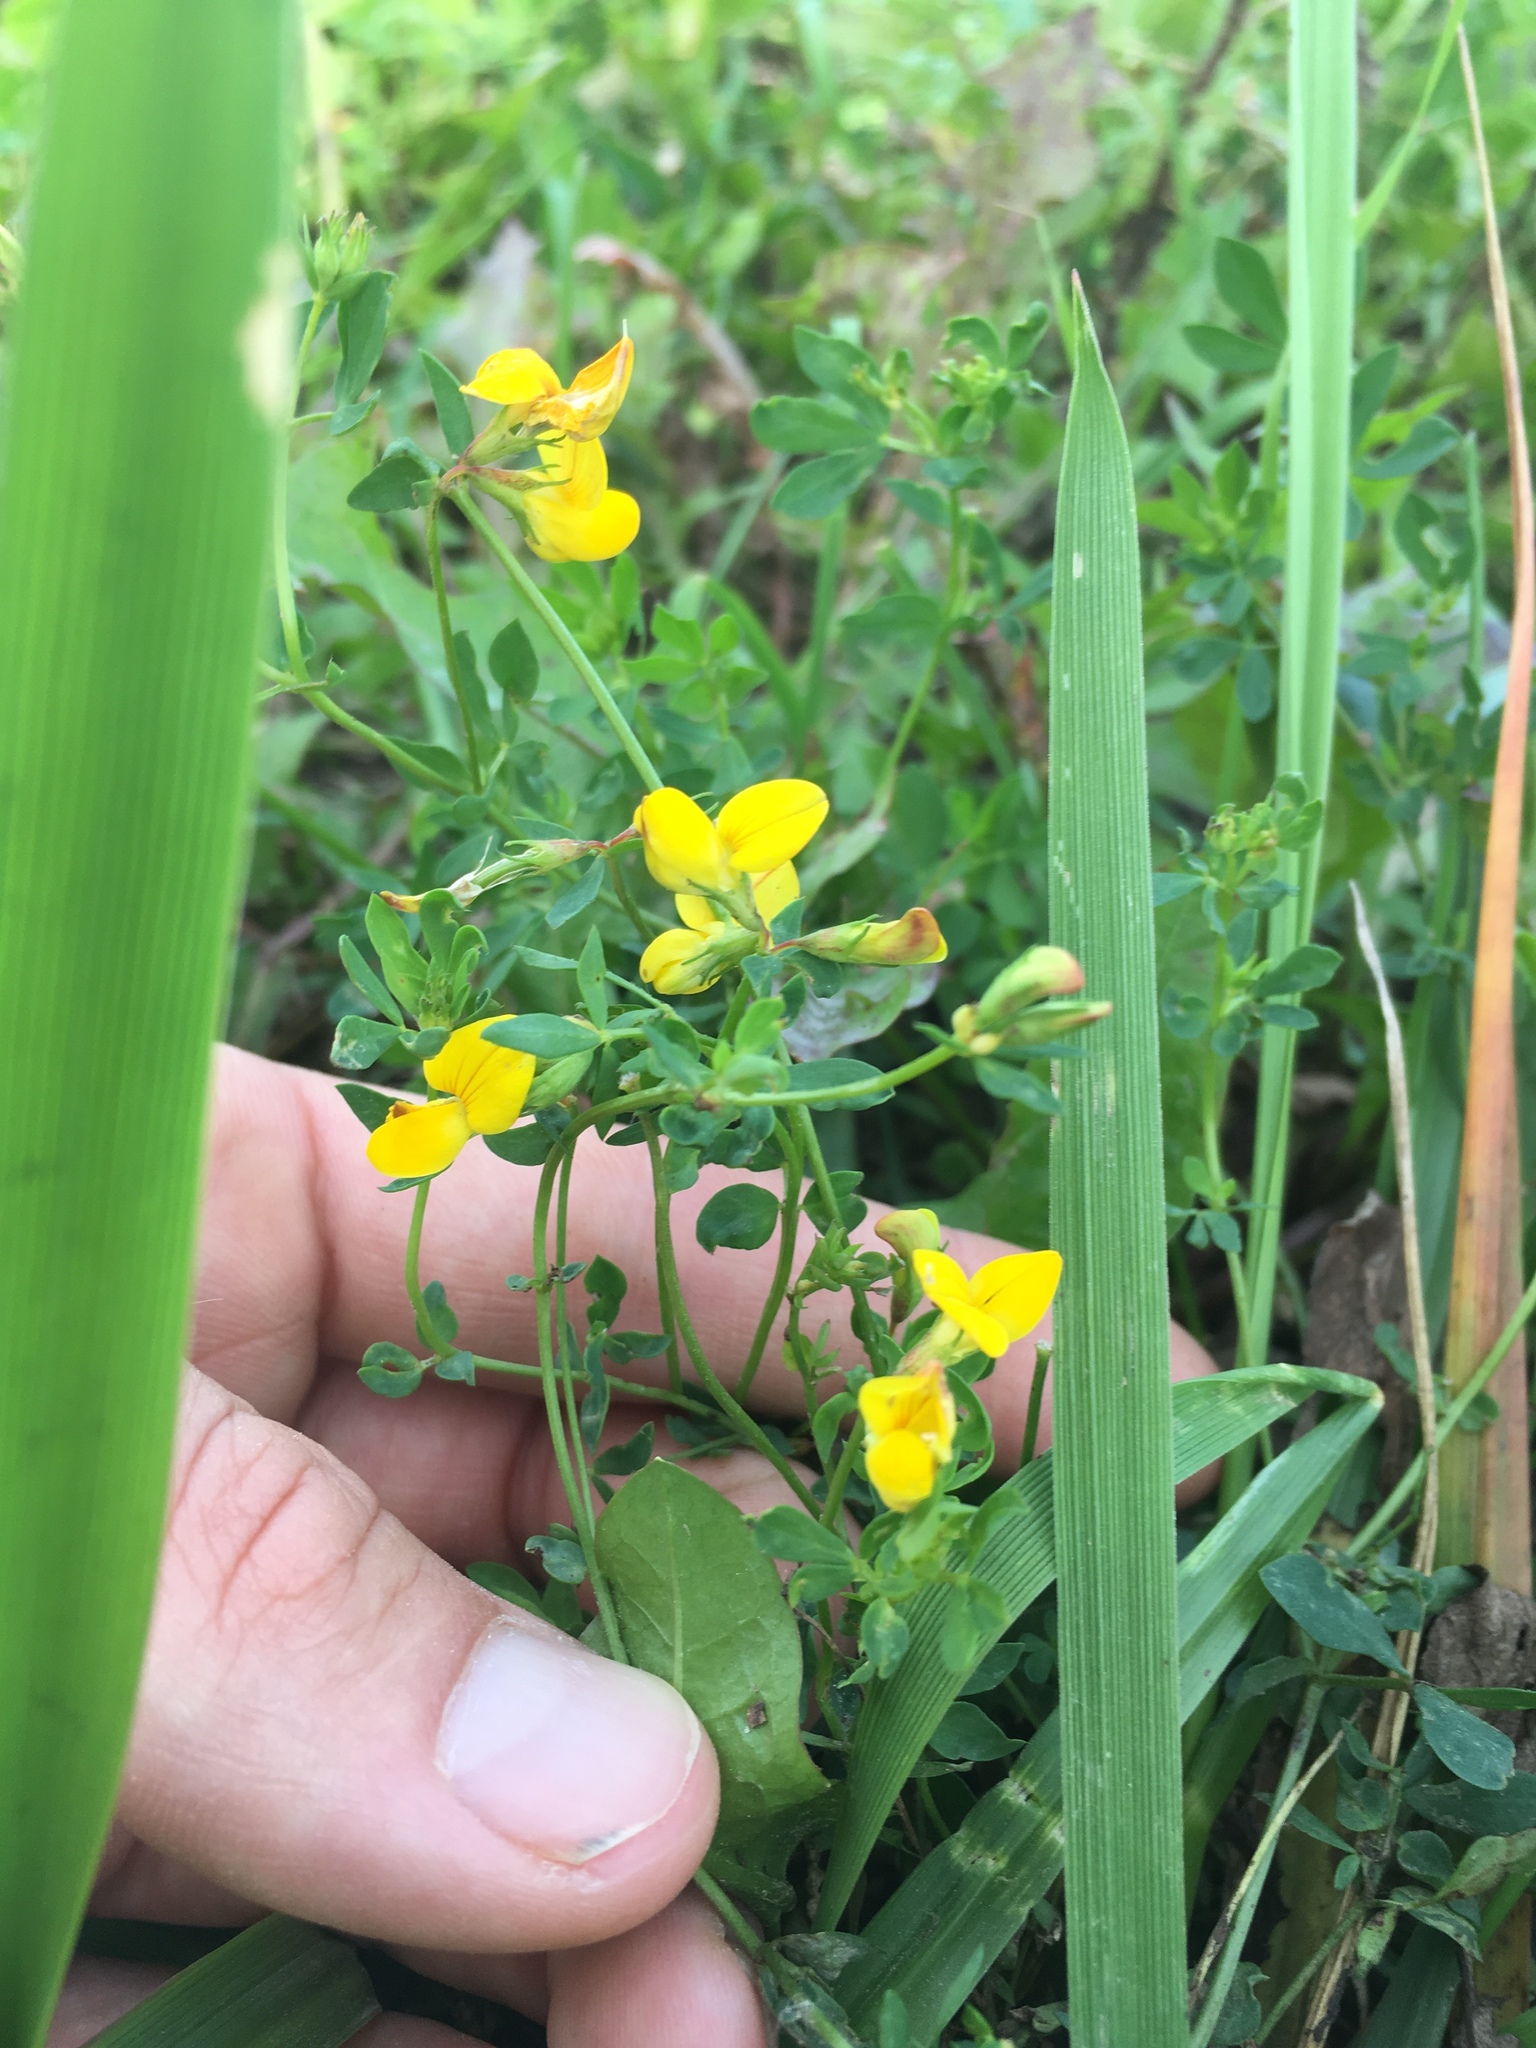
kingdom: Plantae
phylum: Tracheophyta
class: Magnoliopsida
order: Fabales
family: Fabaceae
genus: Lotus
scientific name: Lotus corniculatus
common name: Common bird's-foot-trefoil
